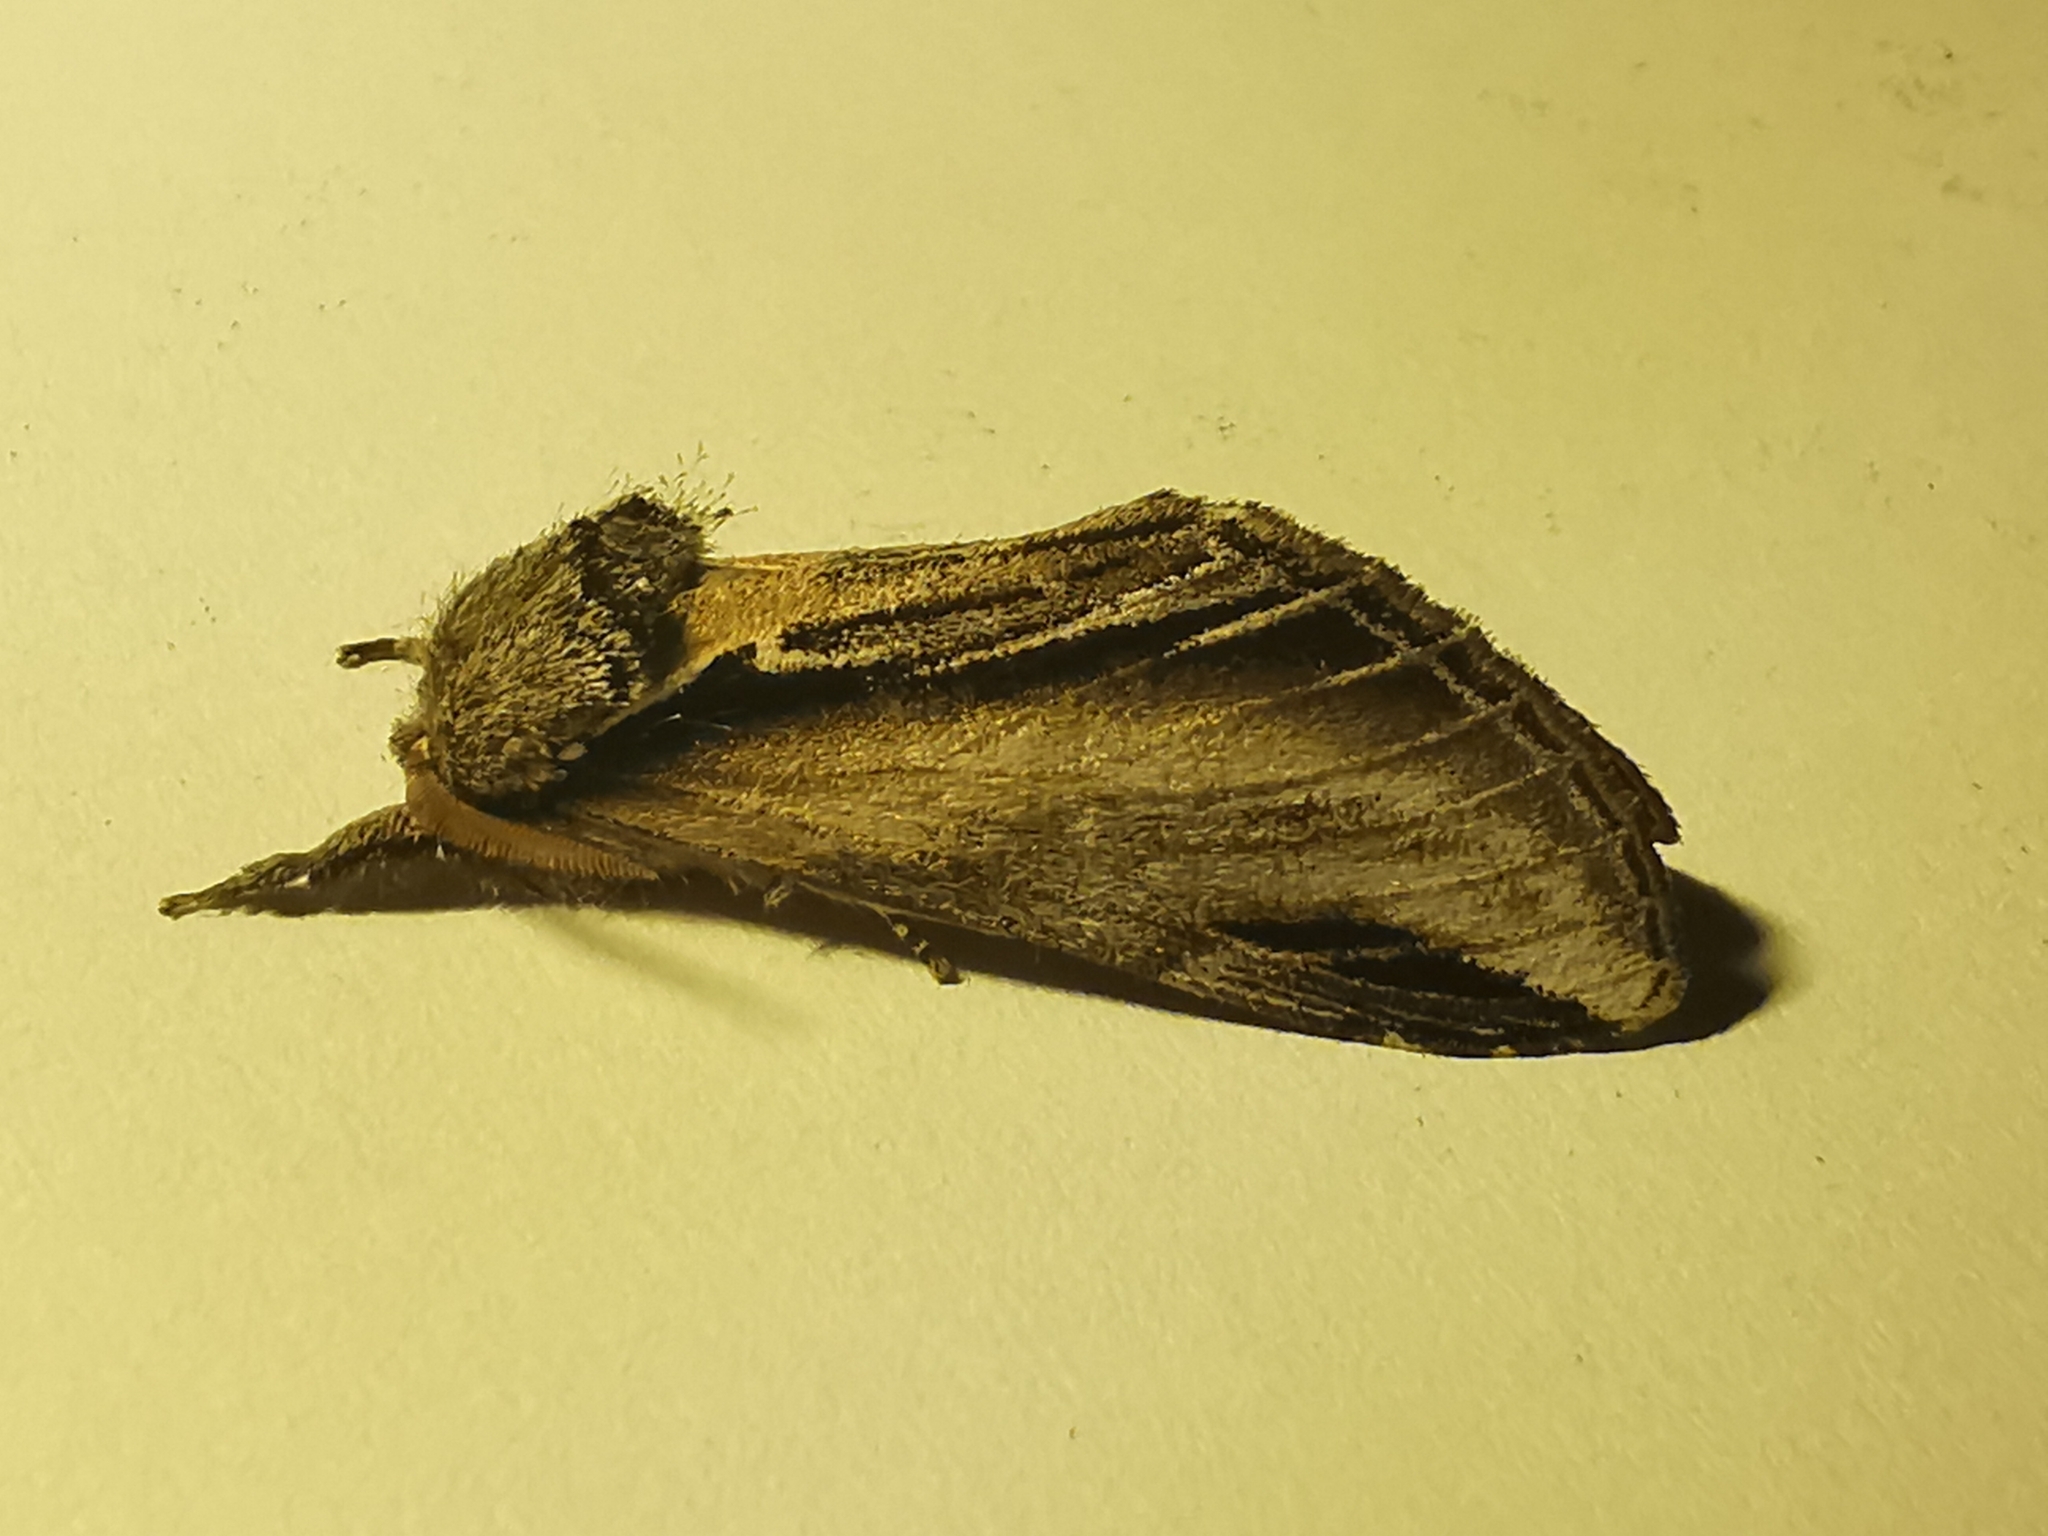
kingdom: Animalia
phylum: Arthropoda
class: Insecta
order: Lepidoptera
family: Notodontidae
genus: Pheosia
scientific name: Pheosia tremula
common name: Swallow prominent
